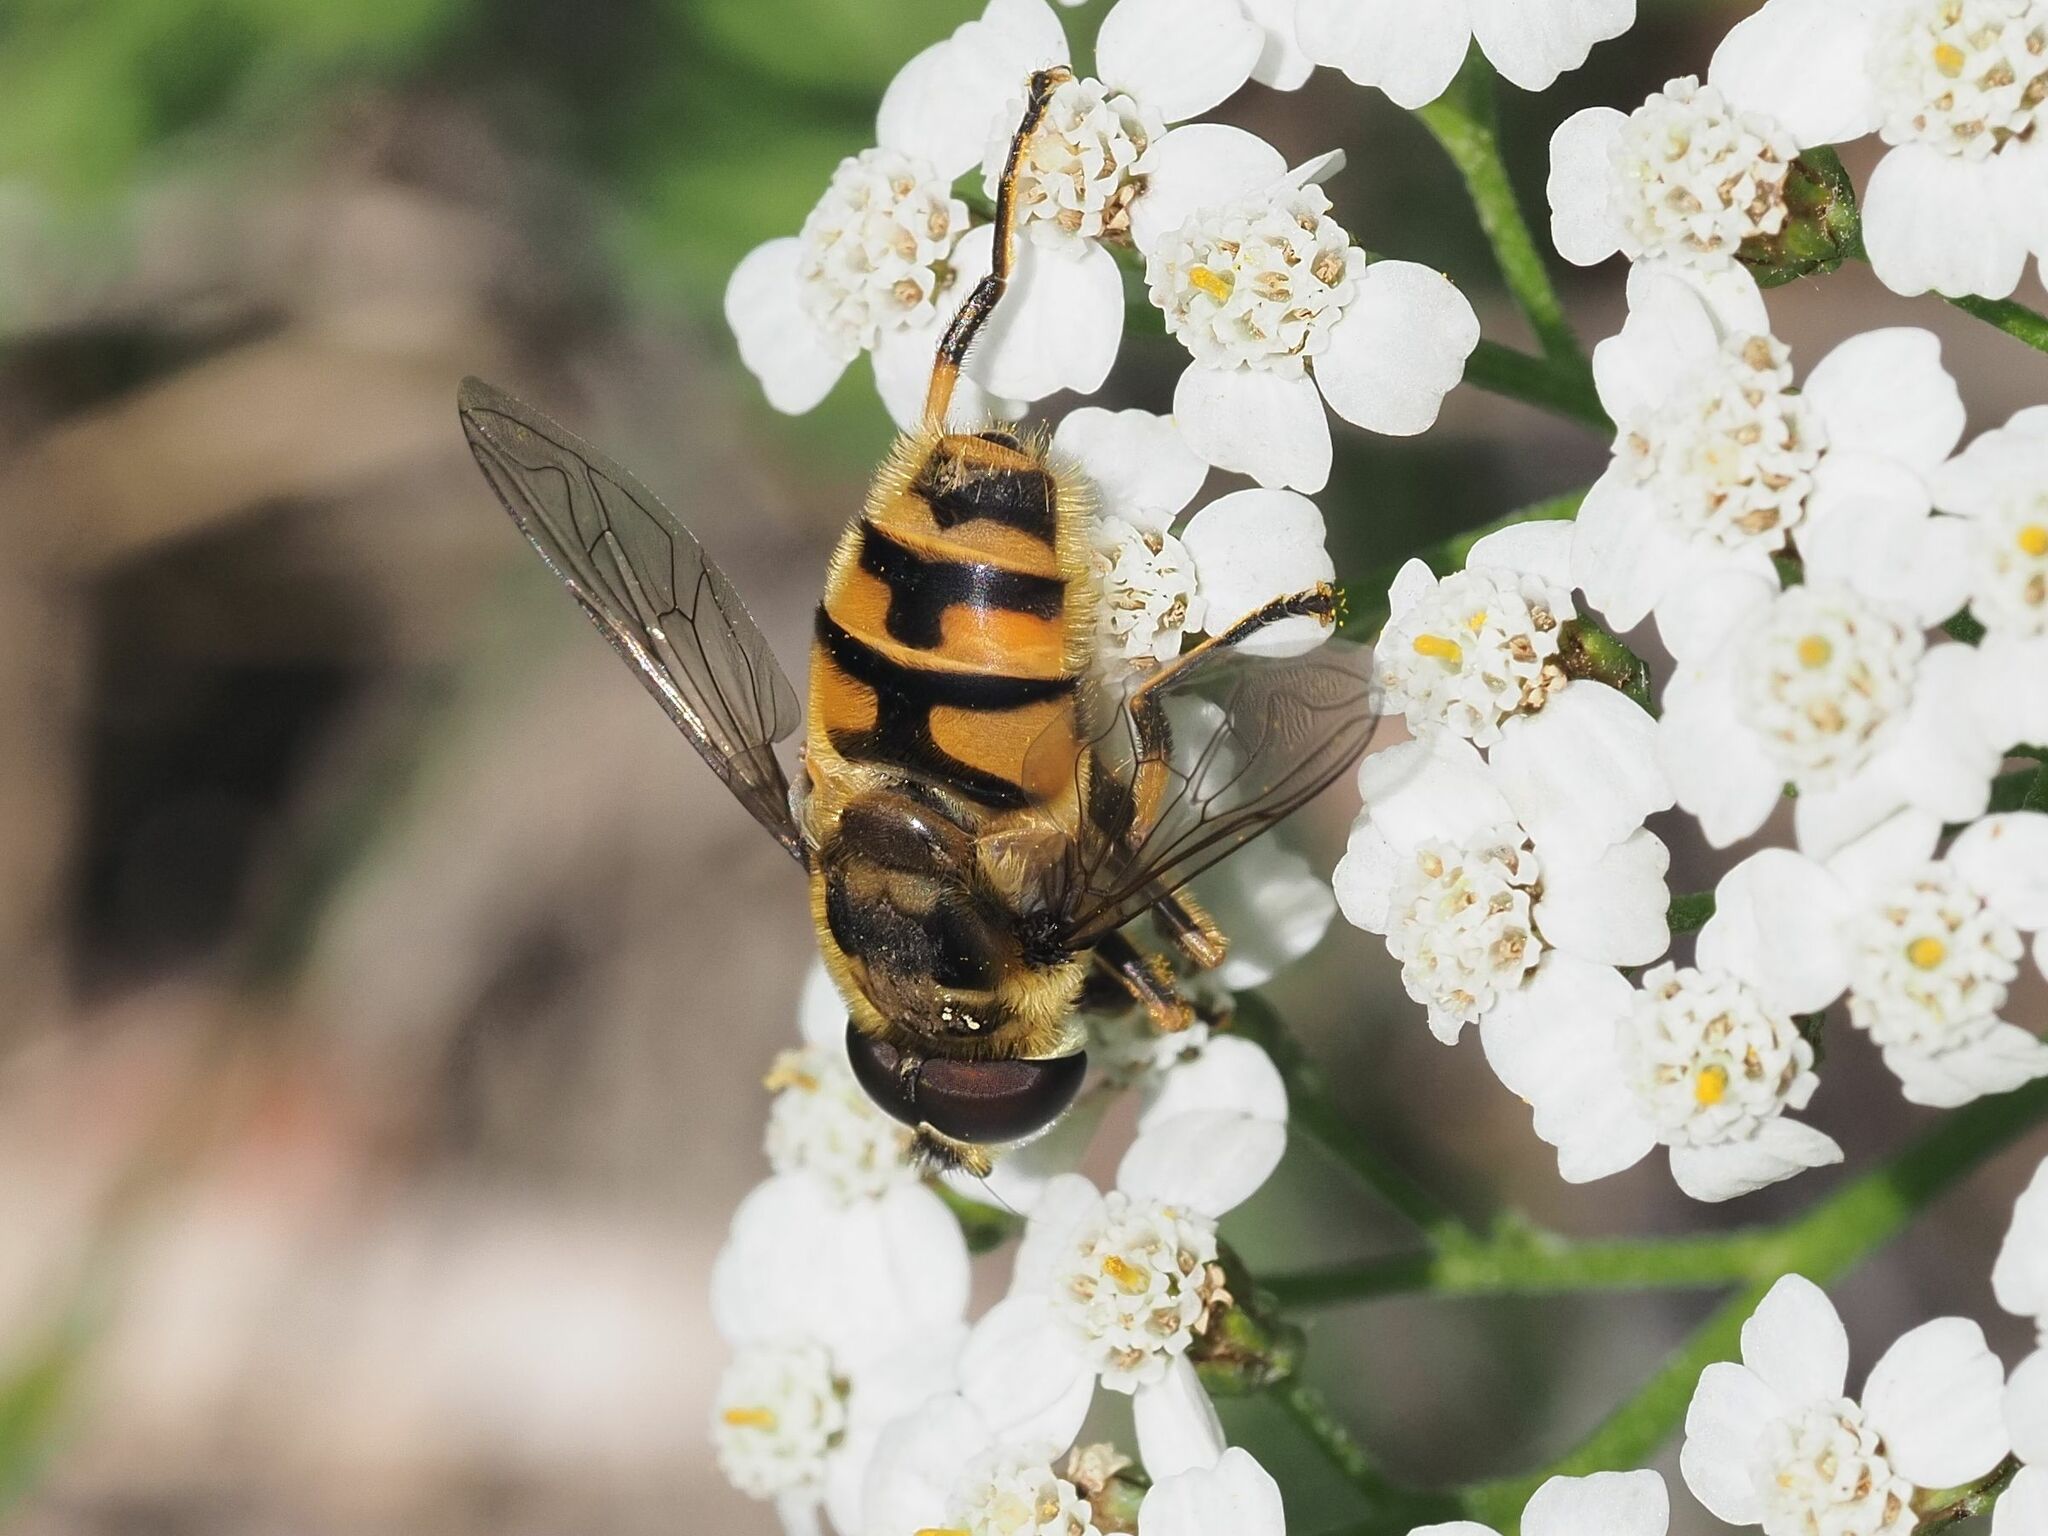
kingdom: Animalia
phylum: Arthropoda
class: Insecta
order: Diptera
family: Syrphidae
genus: Myathropa
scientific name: Myathropa florea
